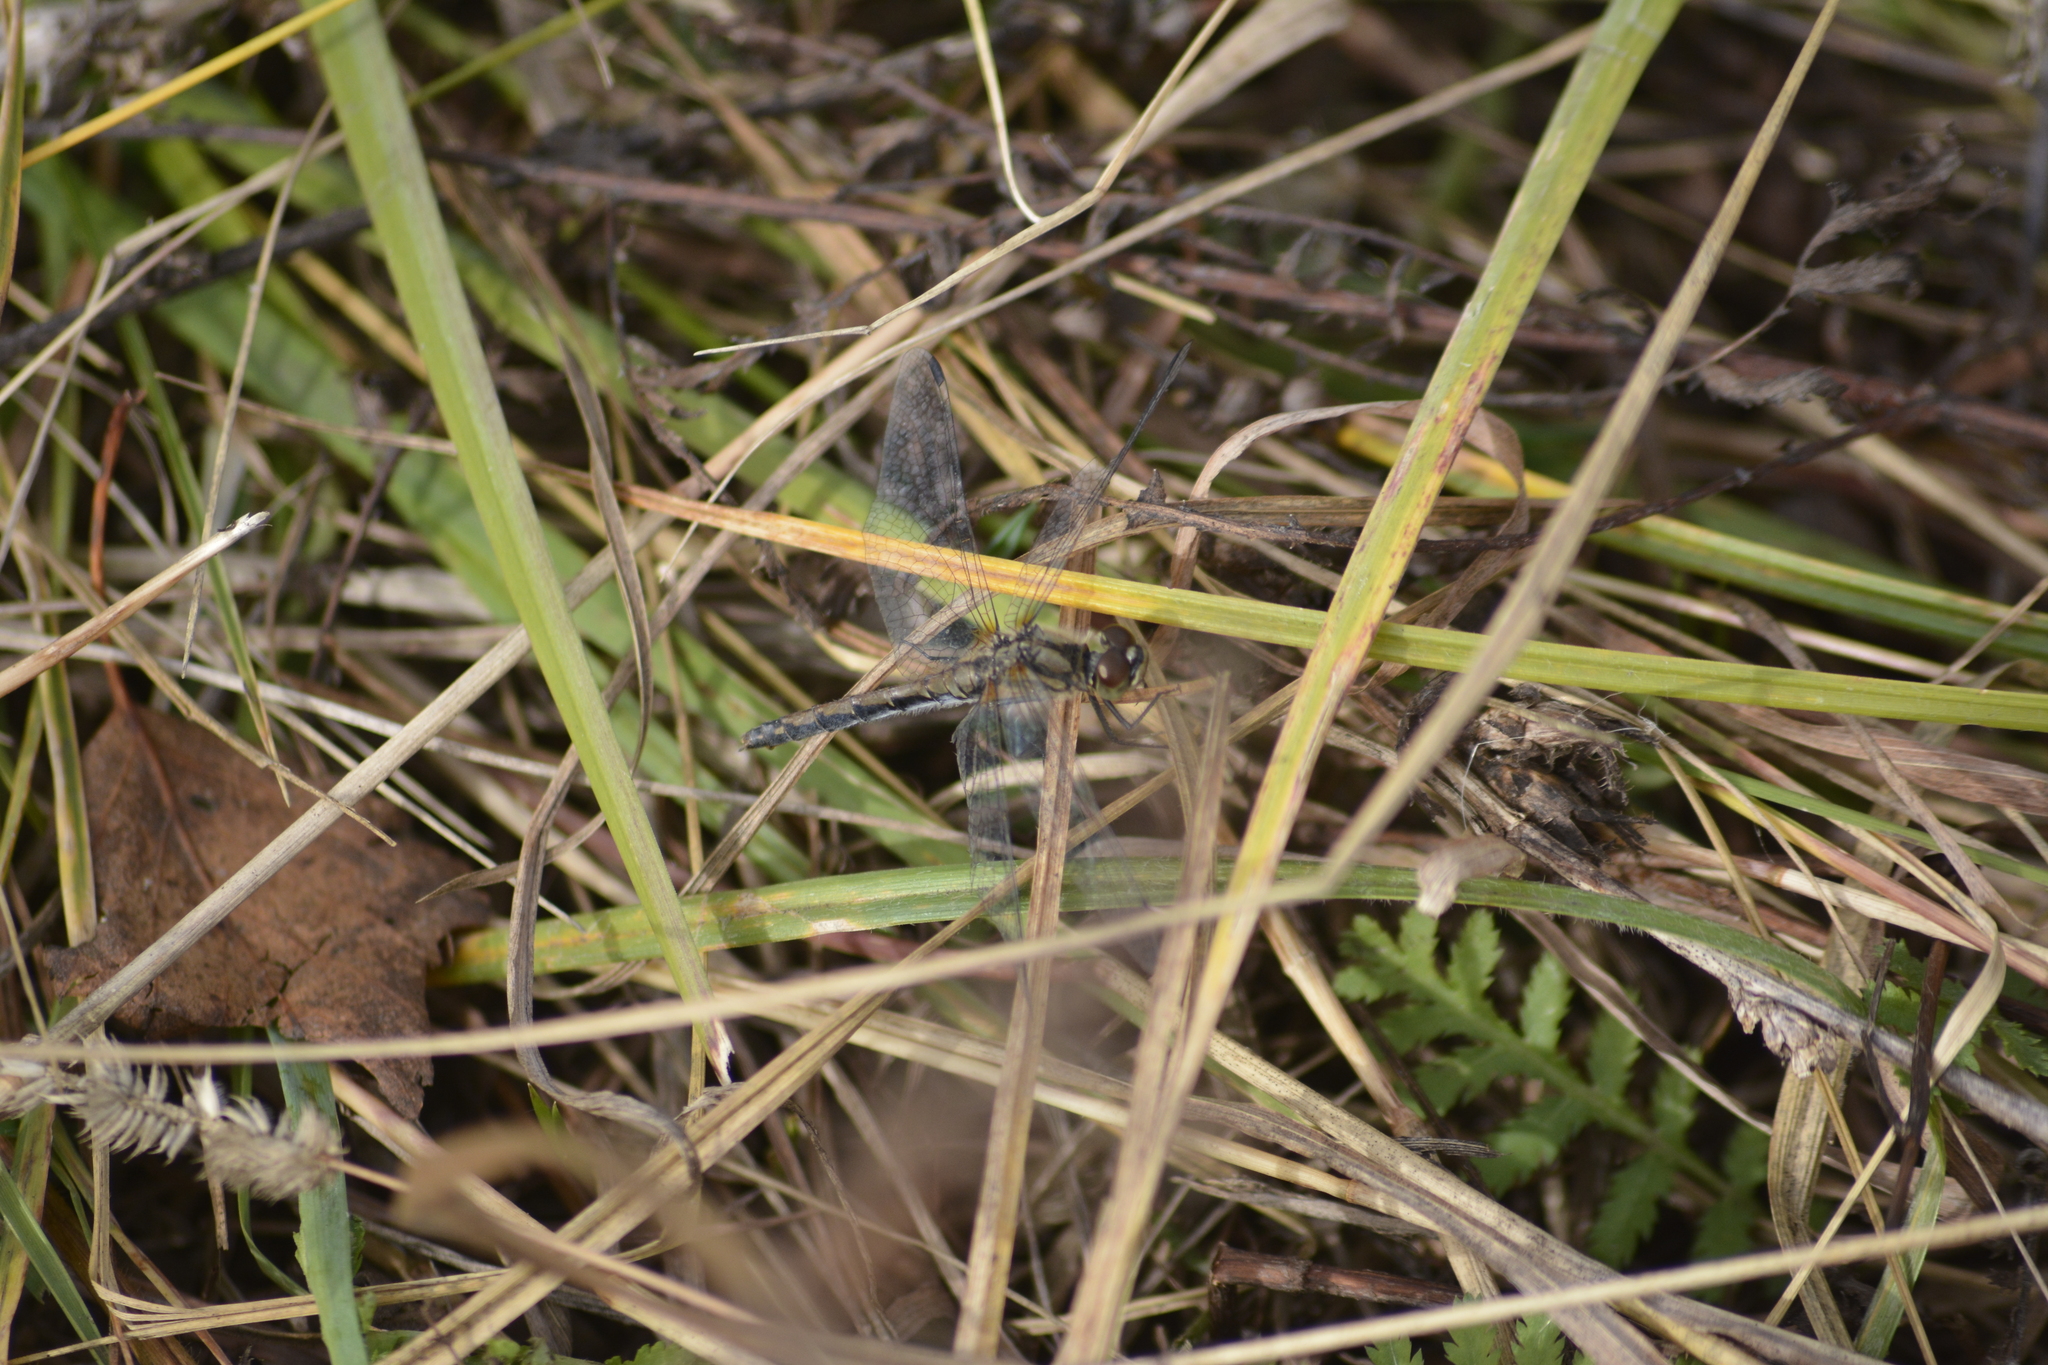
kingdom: Animalia
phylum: Arthropoda
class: Insecta
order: Odonata
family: Libellulidae
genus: Sympetrum
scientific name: Sympetrum danae
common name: Black darter
